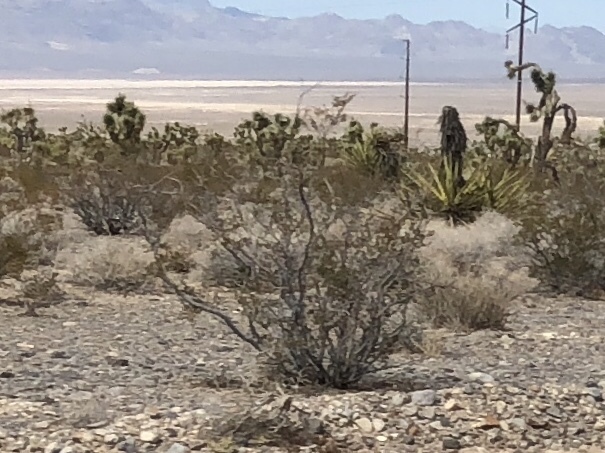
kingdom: Plantae
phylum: Tracheophyta
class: Magnoliopsida
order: Zygophyllales
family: Zygophyllaceae
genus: Larrea
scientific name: Larrea tridentata
